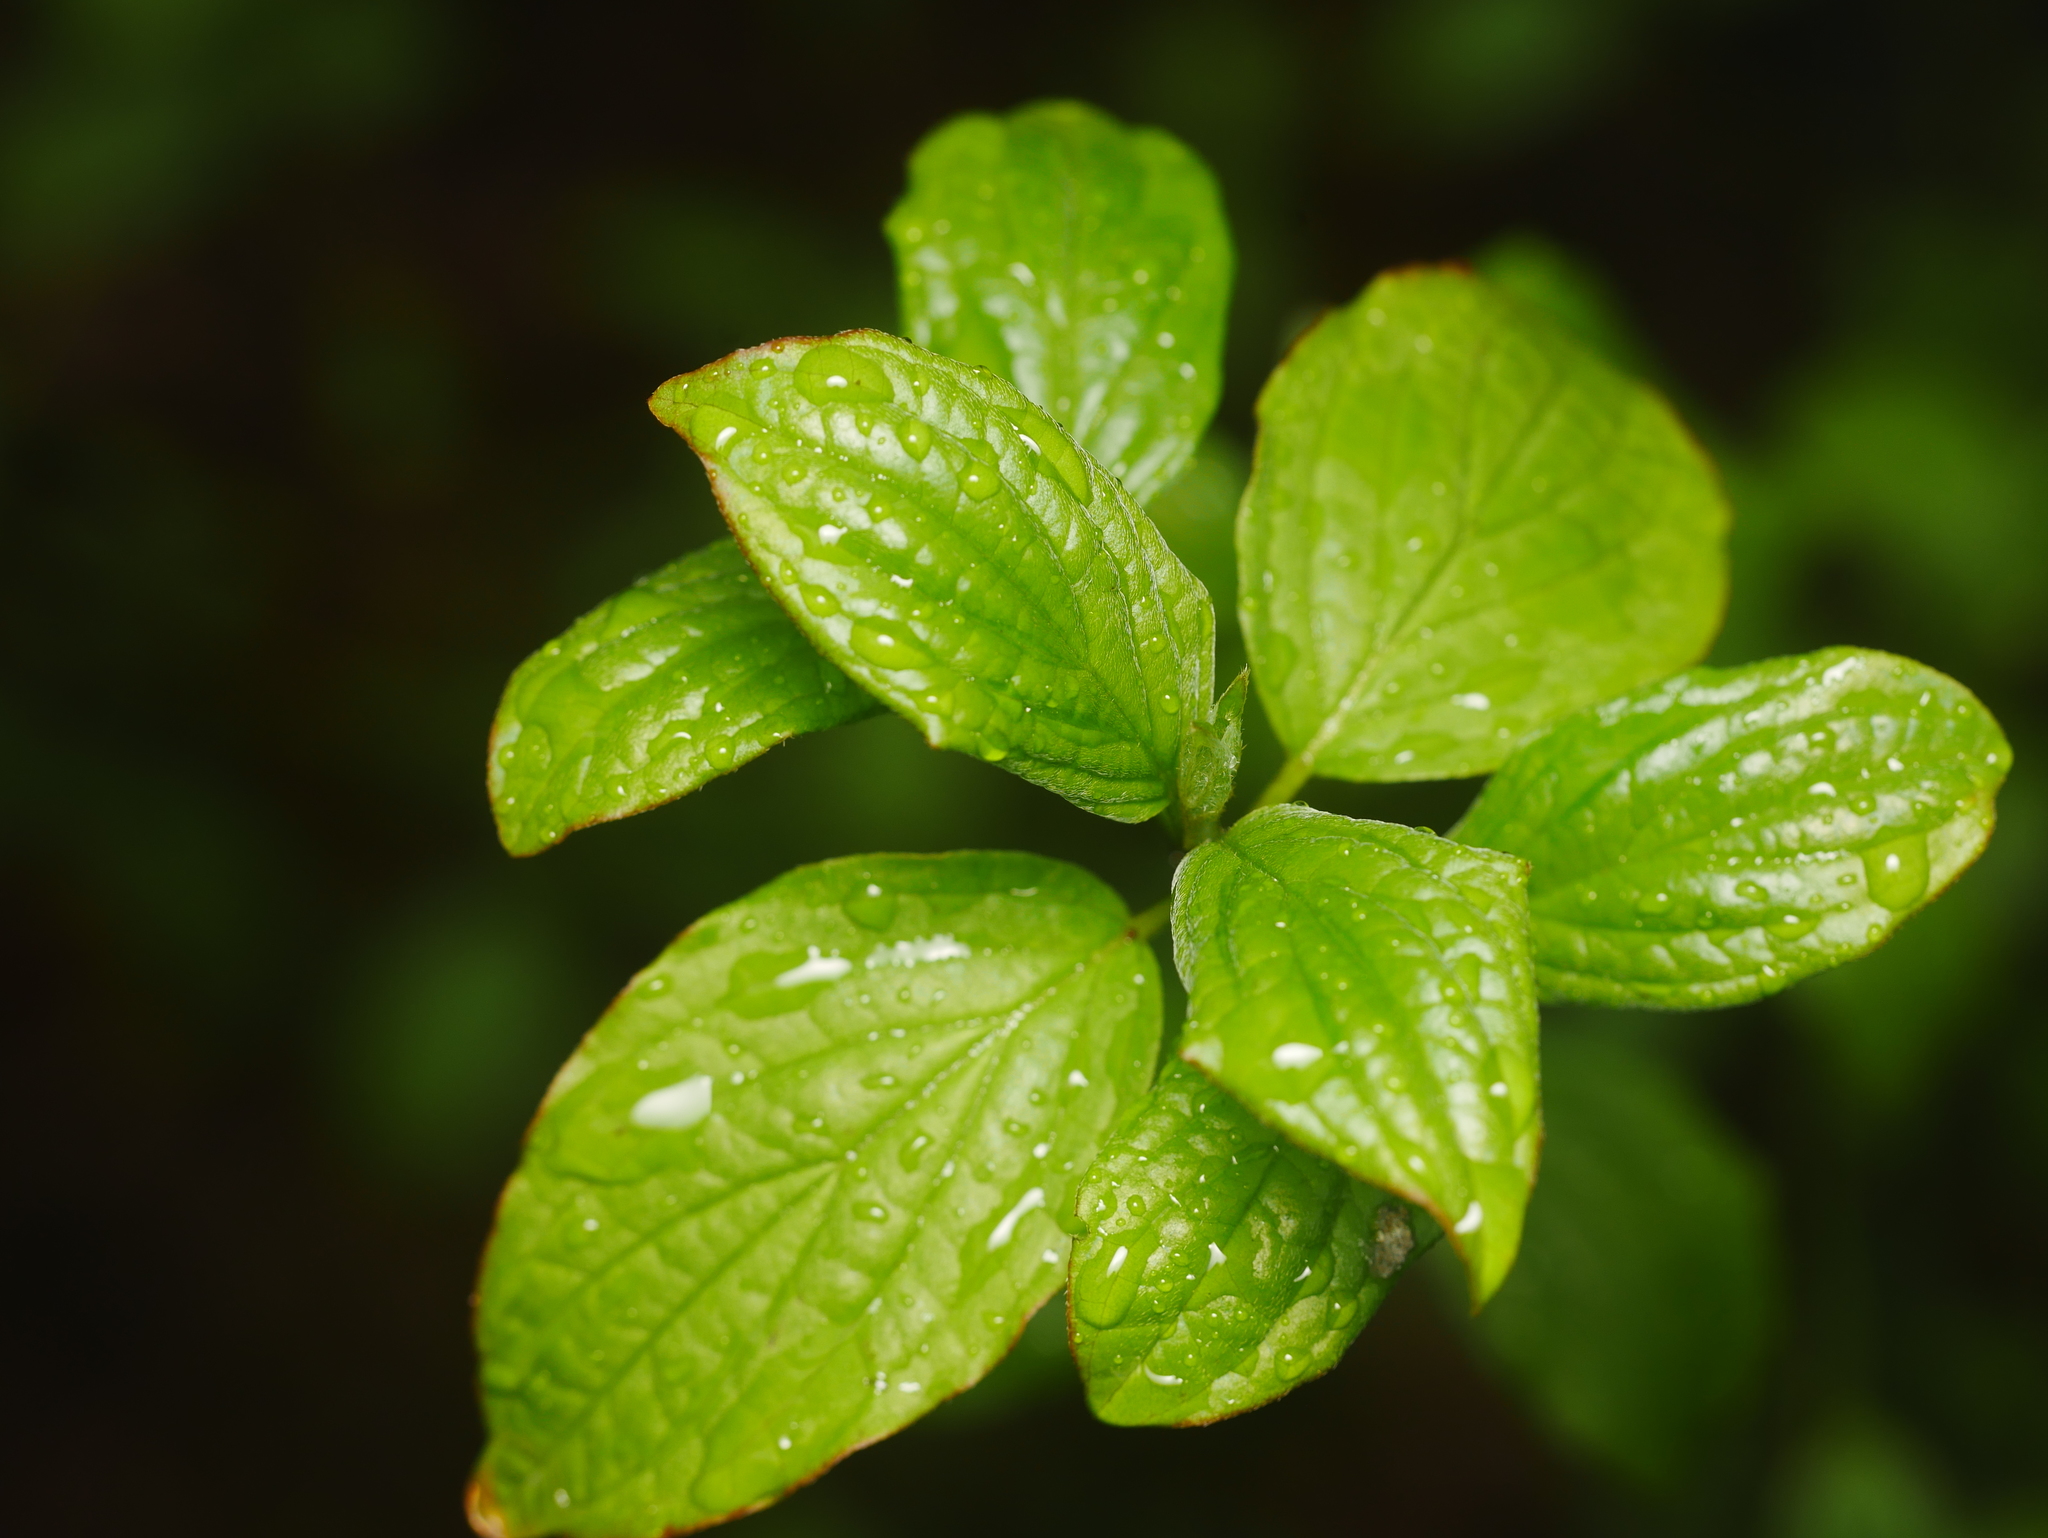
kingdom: Plantae
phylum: Tracheophyta
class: Magnoliopsida
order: Cornales
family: Cornaceae
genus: Cornus
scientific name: Cornus sanguinea
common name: Dogwood
